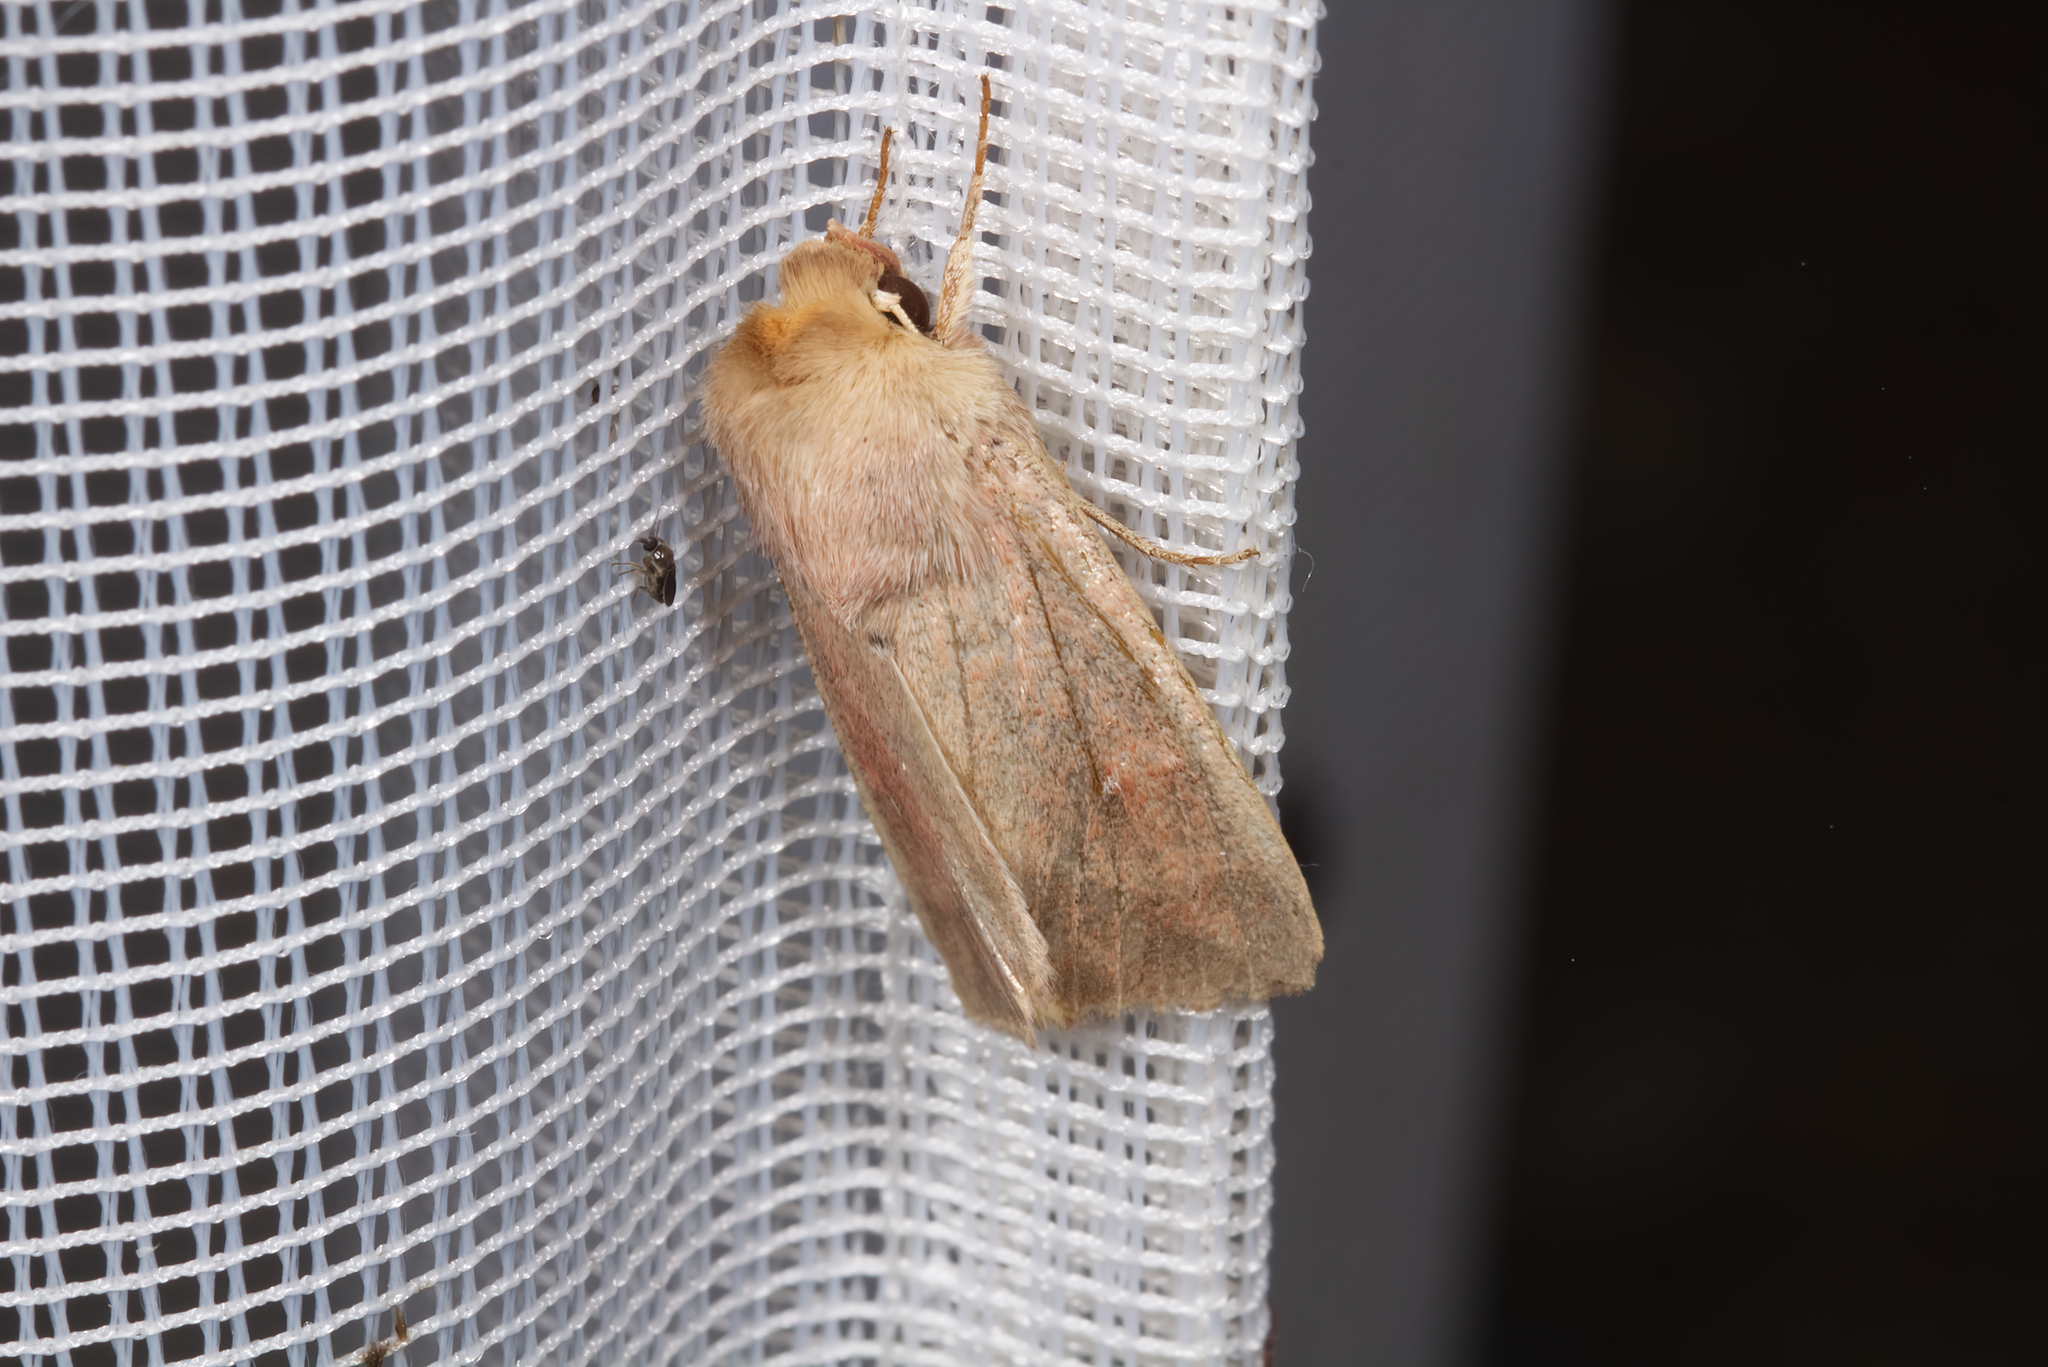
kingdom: Animalia
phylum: Arthropoda
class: Insecta
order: Lepidoptera
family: Noctuidae
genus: Mythimna
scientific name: Mythimna ferrago
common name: Clay
